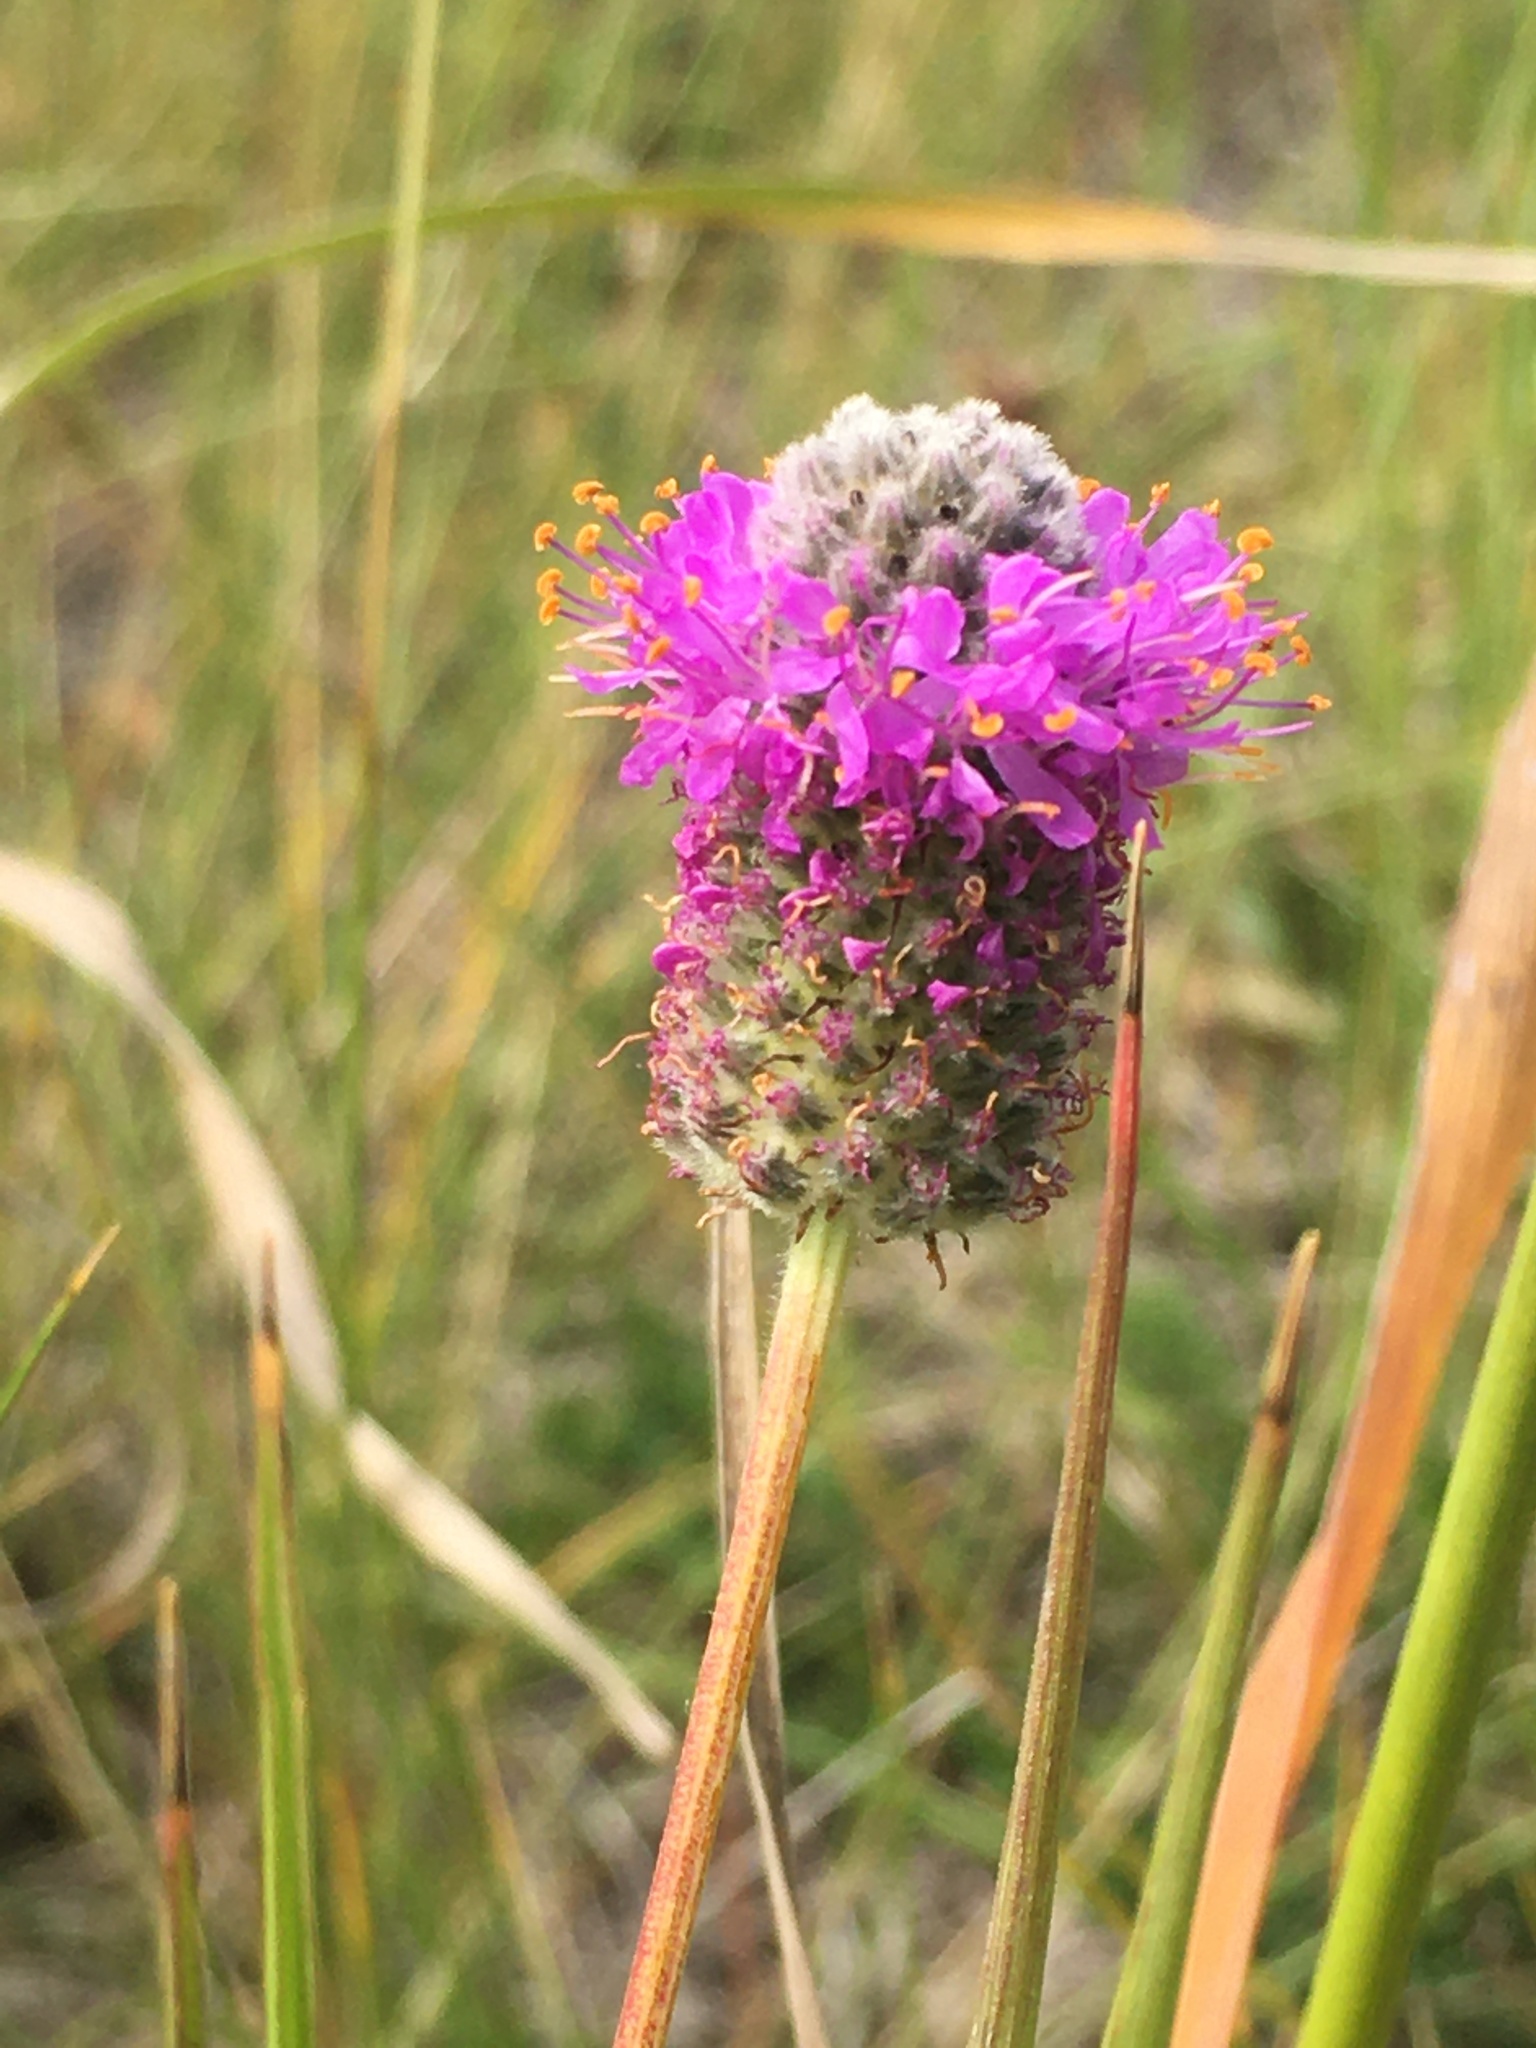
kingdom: Plantae
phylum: Tracheophyta
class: Magnoliopsida
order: Fabales
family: Fabaceae
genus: Dalea
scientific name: Dalea purpurea
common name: Purple prairie-clover
